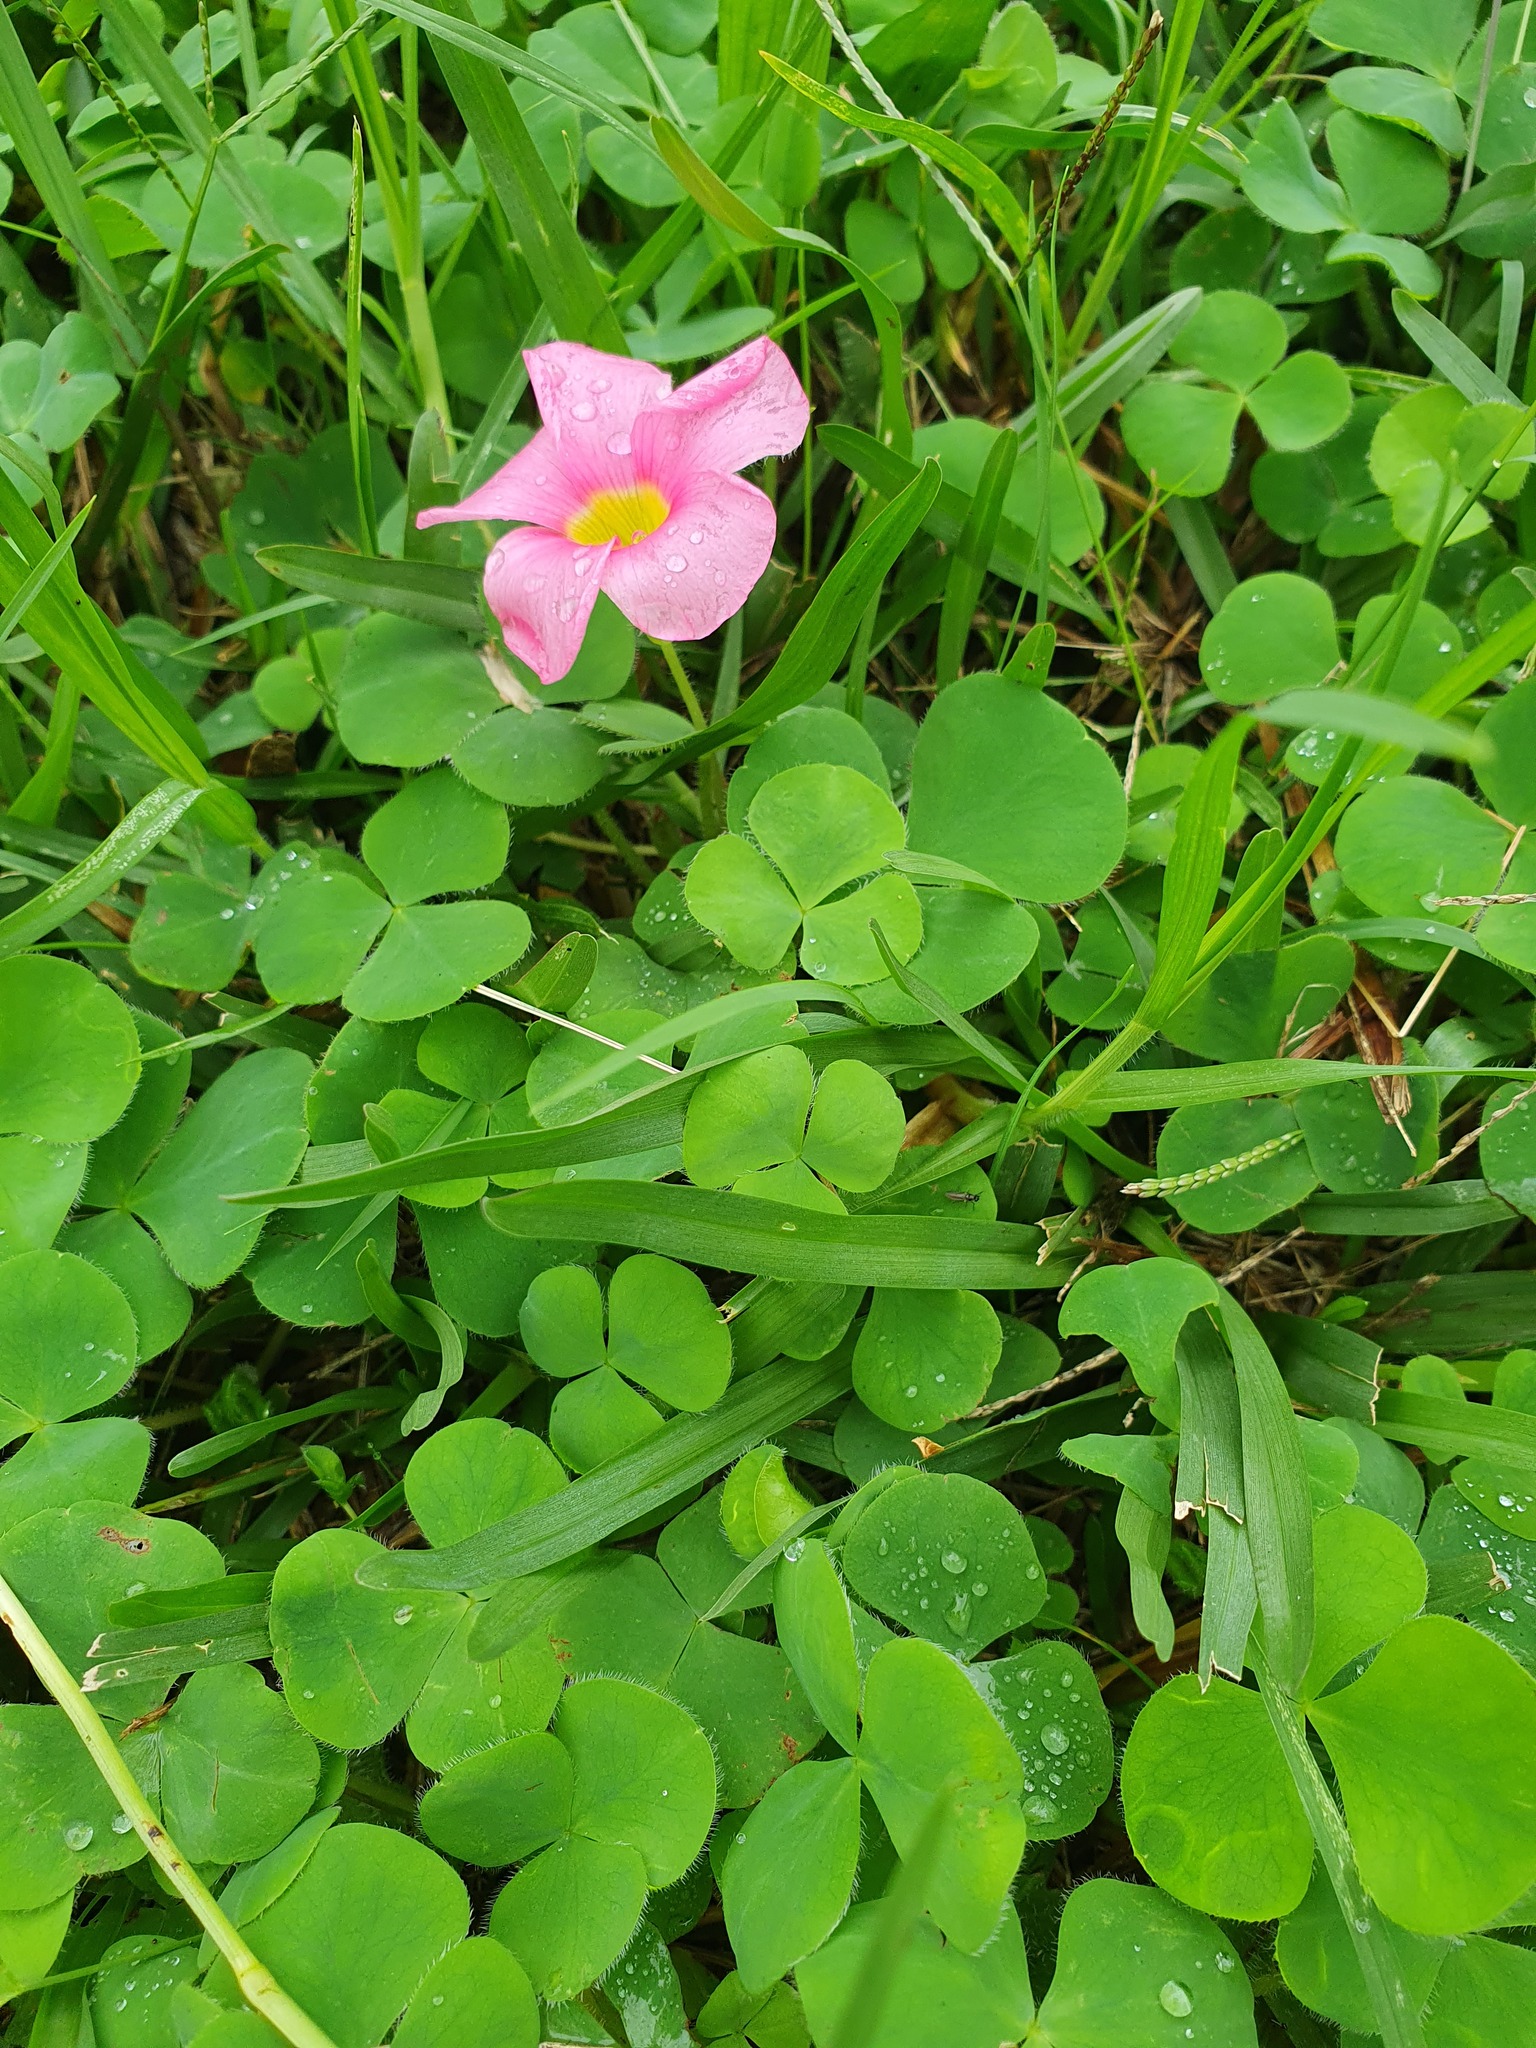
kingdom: Plantae
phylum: Tracheophyta
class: Magnoliopsida
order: Oxalidales
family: Oxalidaceae
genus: Oxalis
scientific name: Oxalis purpurea
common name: Purple woodsorrel
